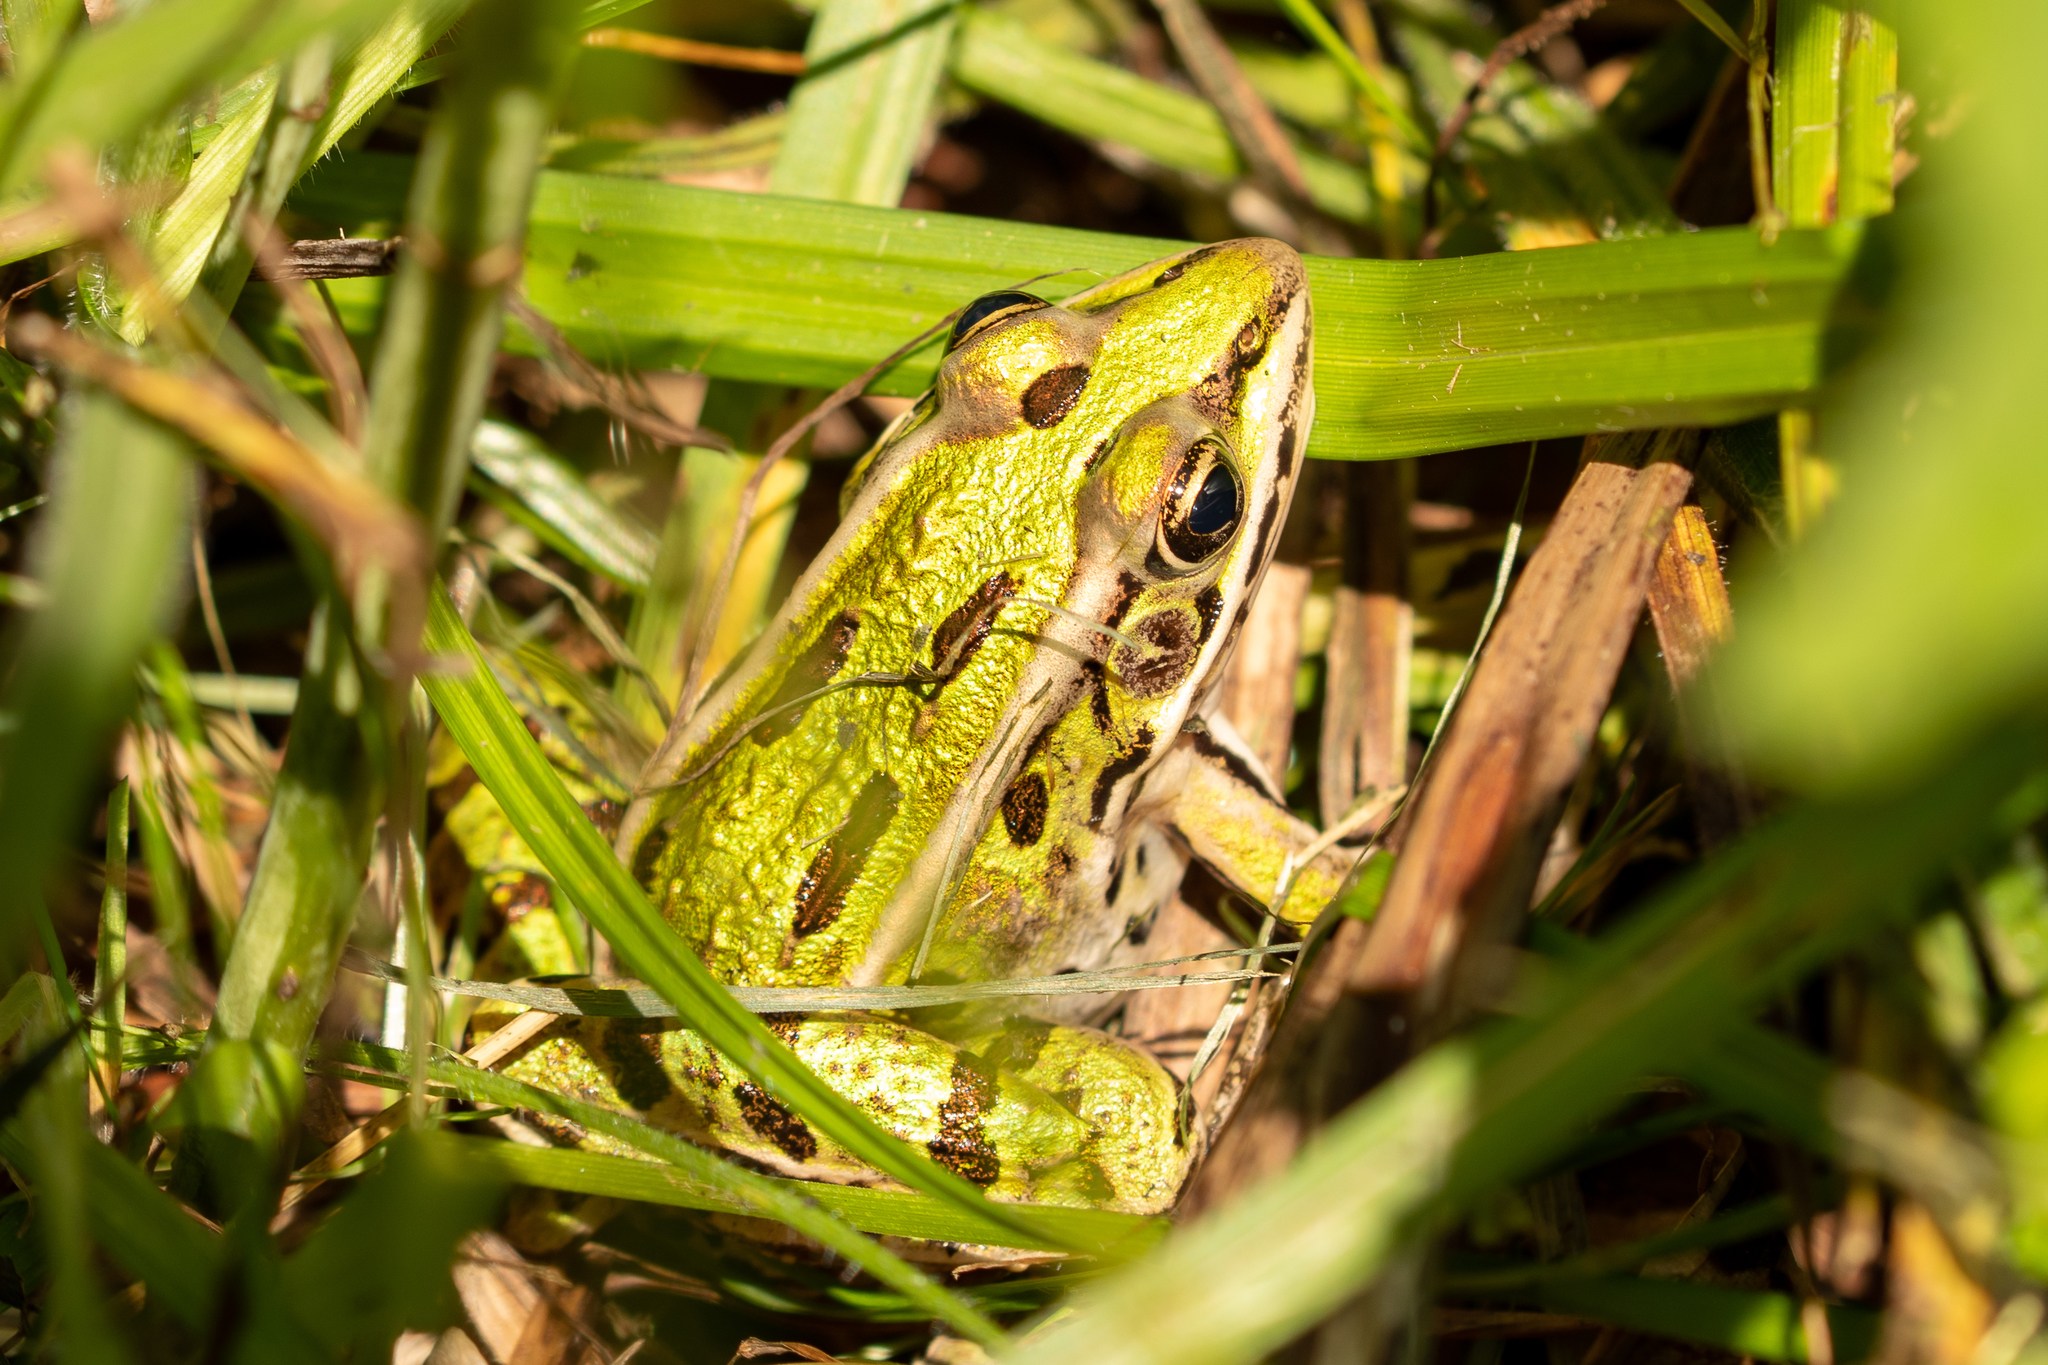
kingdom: Animalia
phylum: Chordata
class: Amphibia
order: Anura
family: Ranidae
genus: Lithobates
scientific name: Lithobates pipiens
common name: Northern leopard frog
